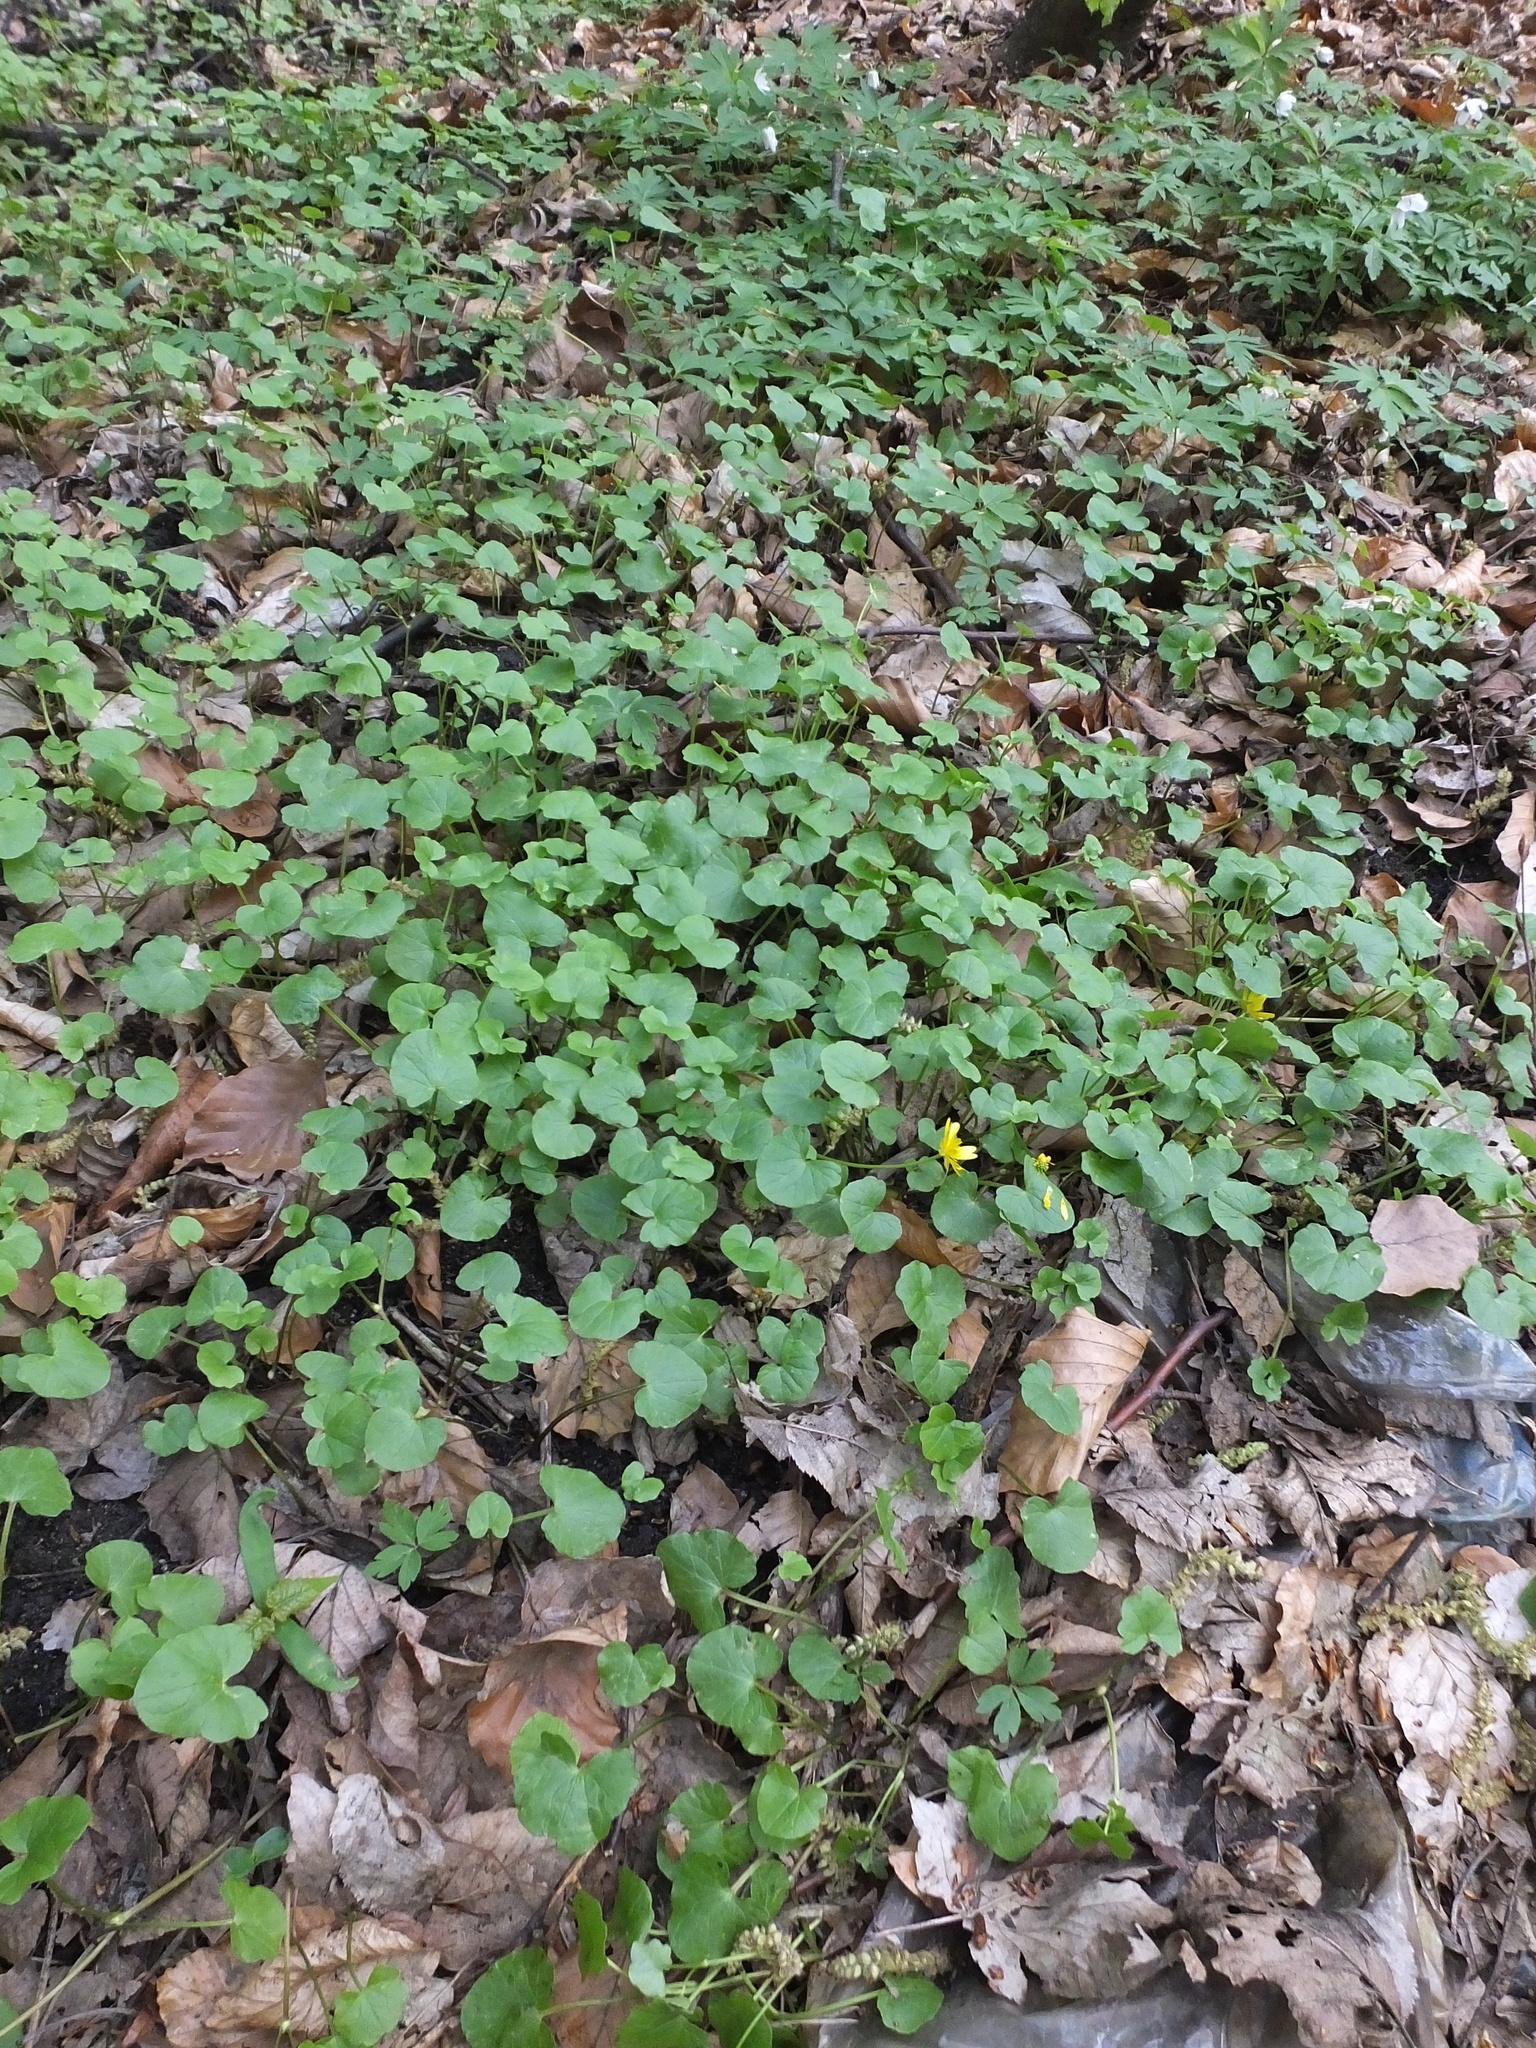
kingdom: Plantae
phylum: Tracheophyta
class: Magnoliopsida
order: Ranunculales
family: Ranunculaceae
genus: Ficaria
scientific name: Ficaria verna
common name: Lesser celandine
